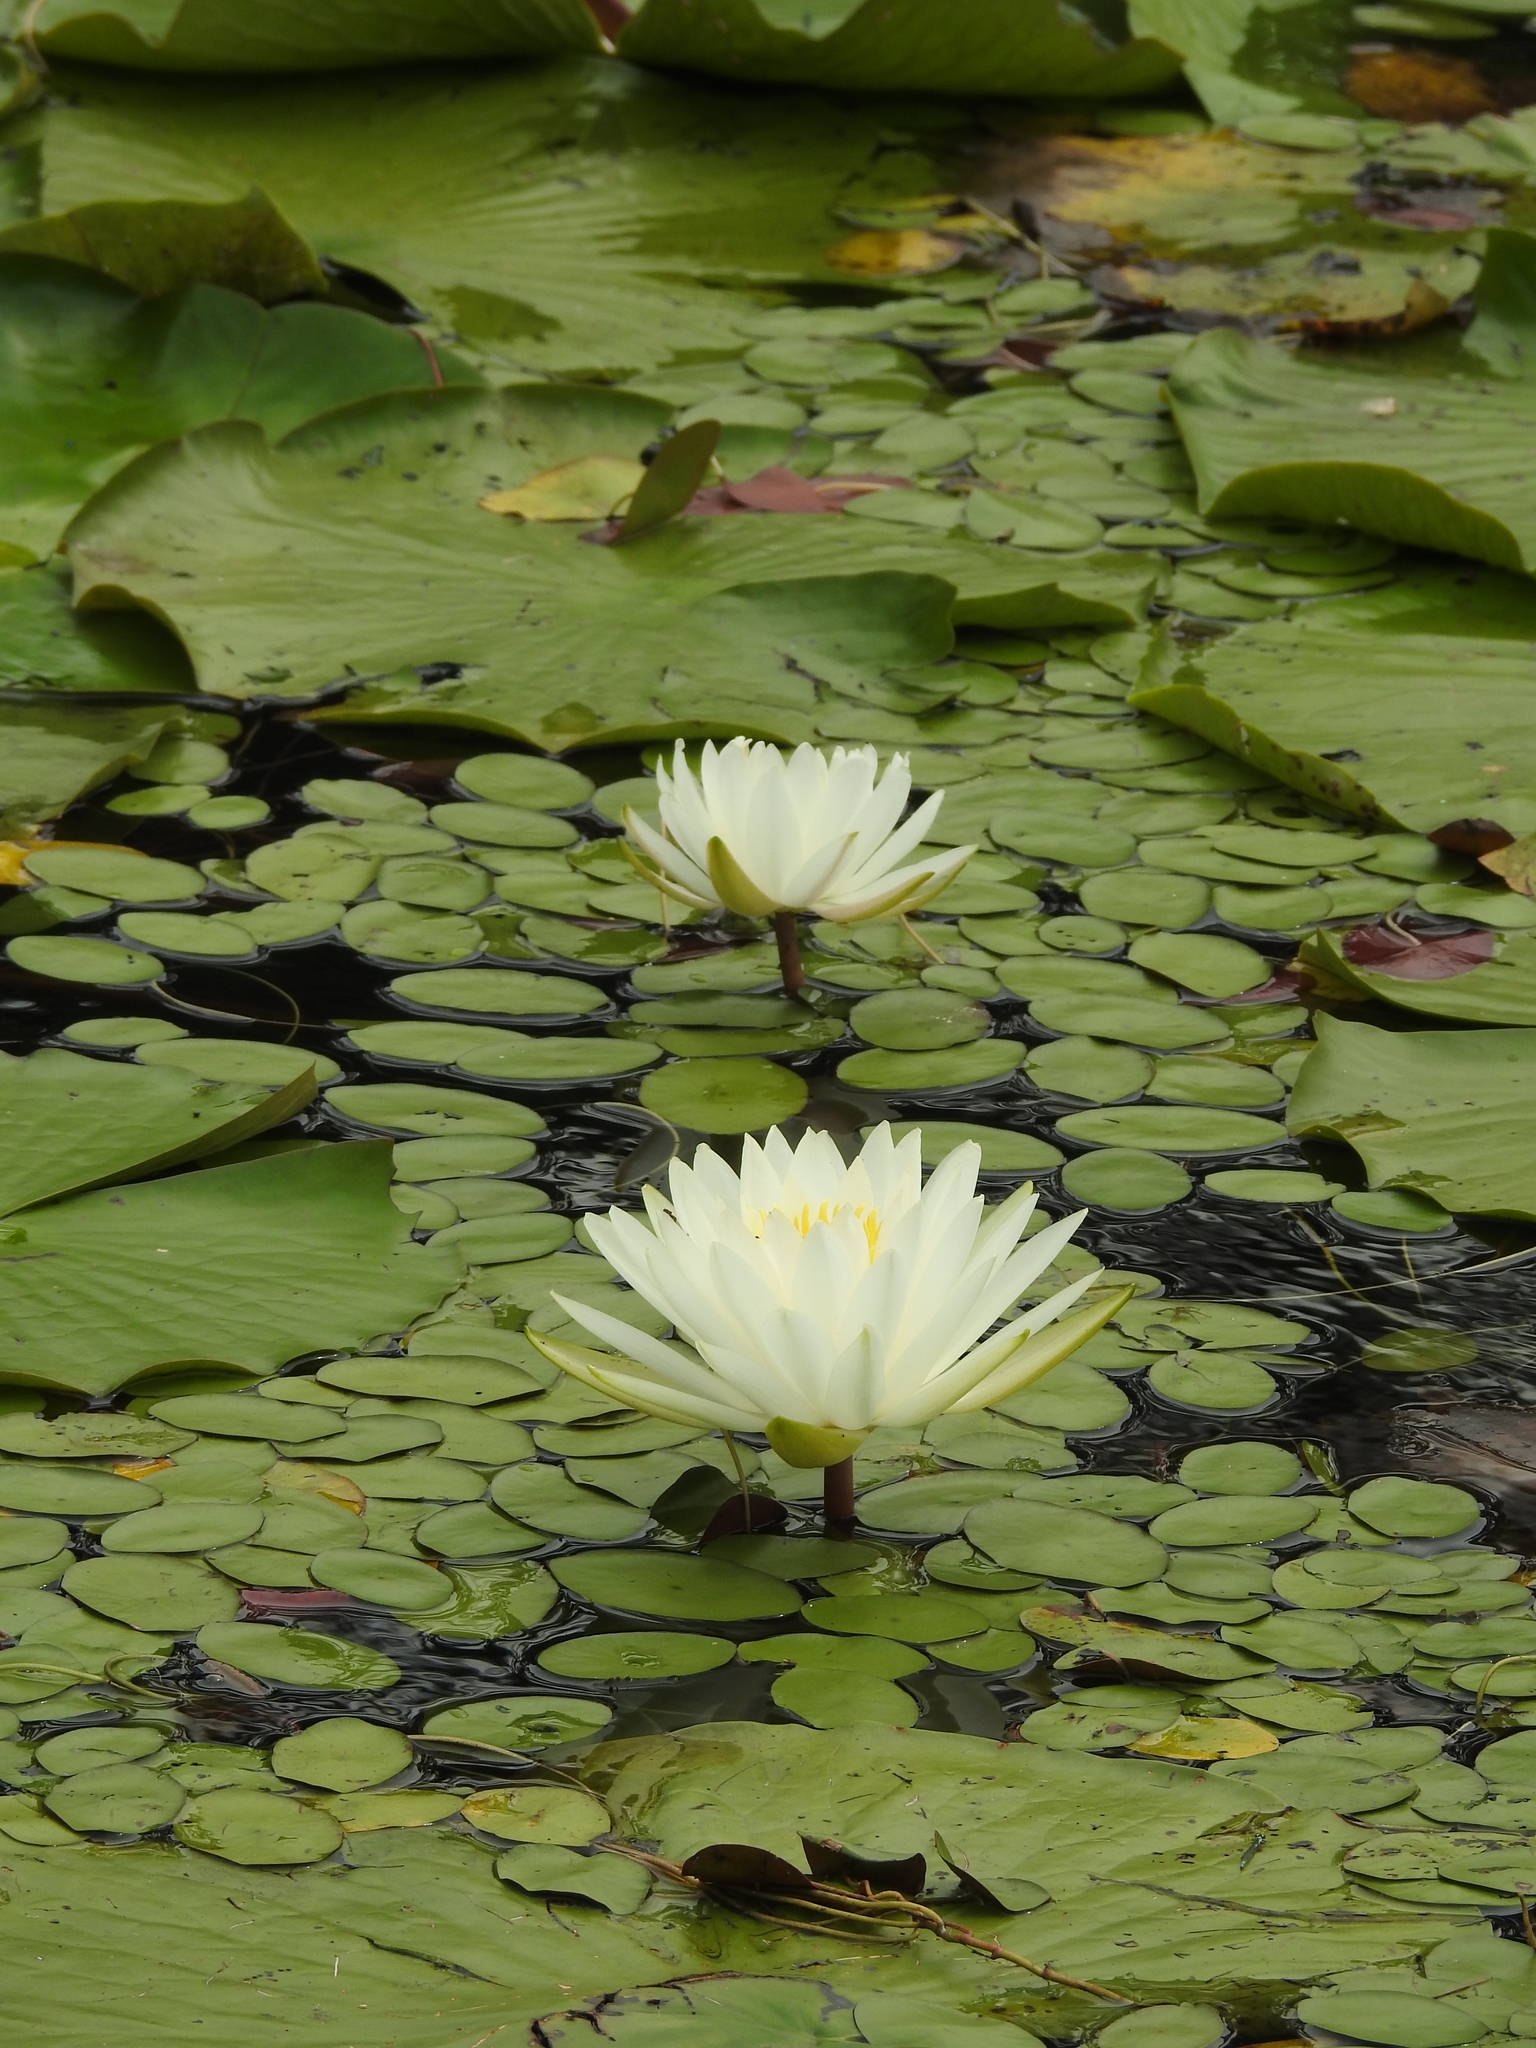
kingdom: Plantae
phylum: Tracheophyta
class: Magnoliopsida
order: Nymphaeales
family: Nymphaeaceae
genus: Nymphaea
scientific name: Nymphaea odorata
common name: Fragrant water-lily
